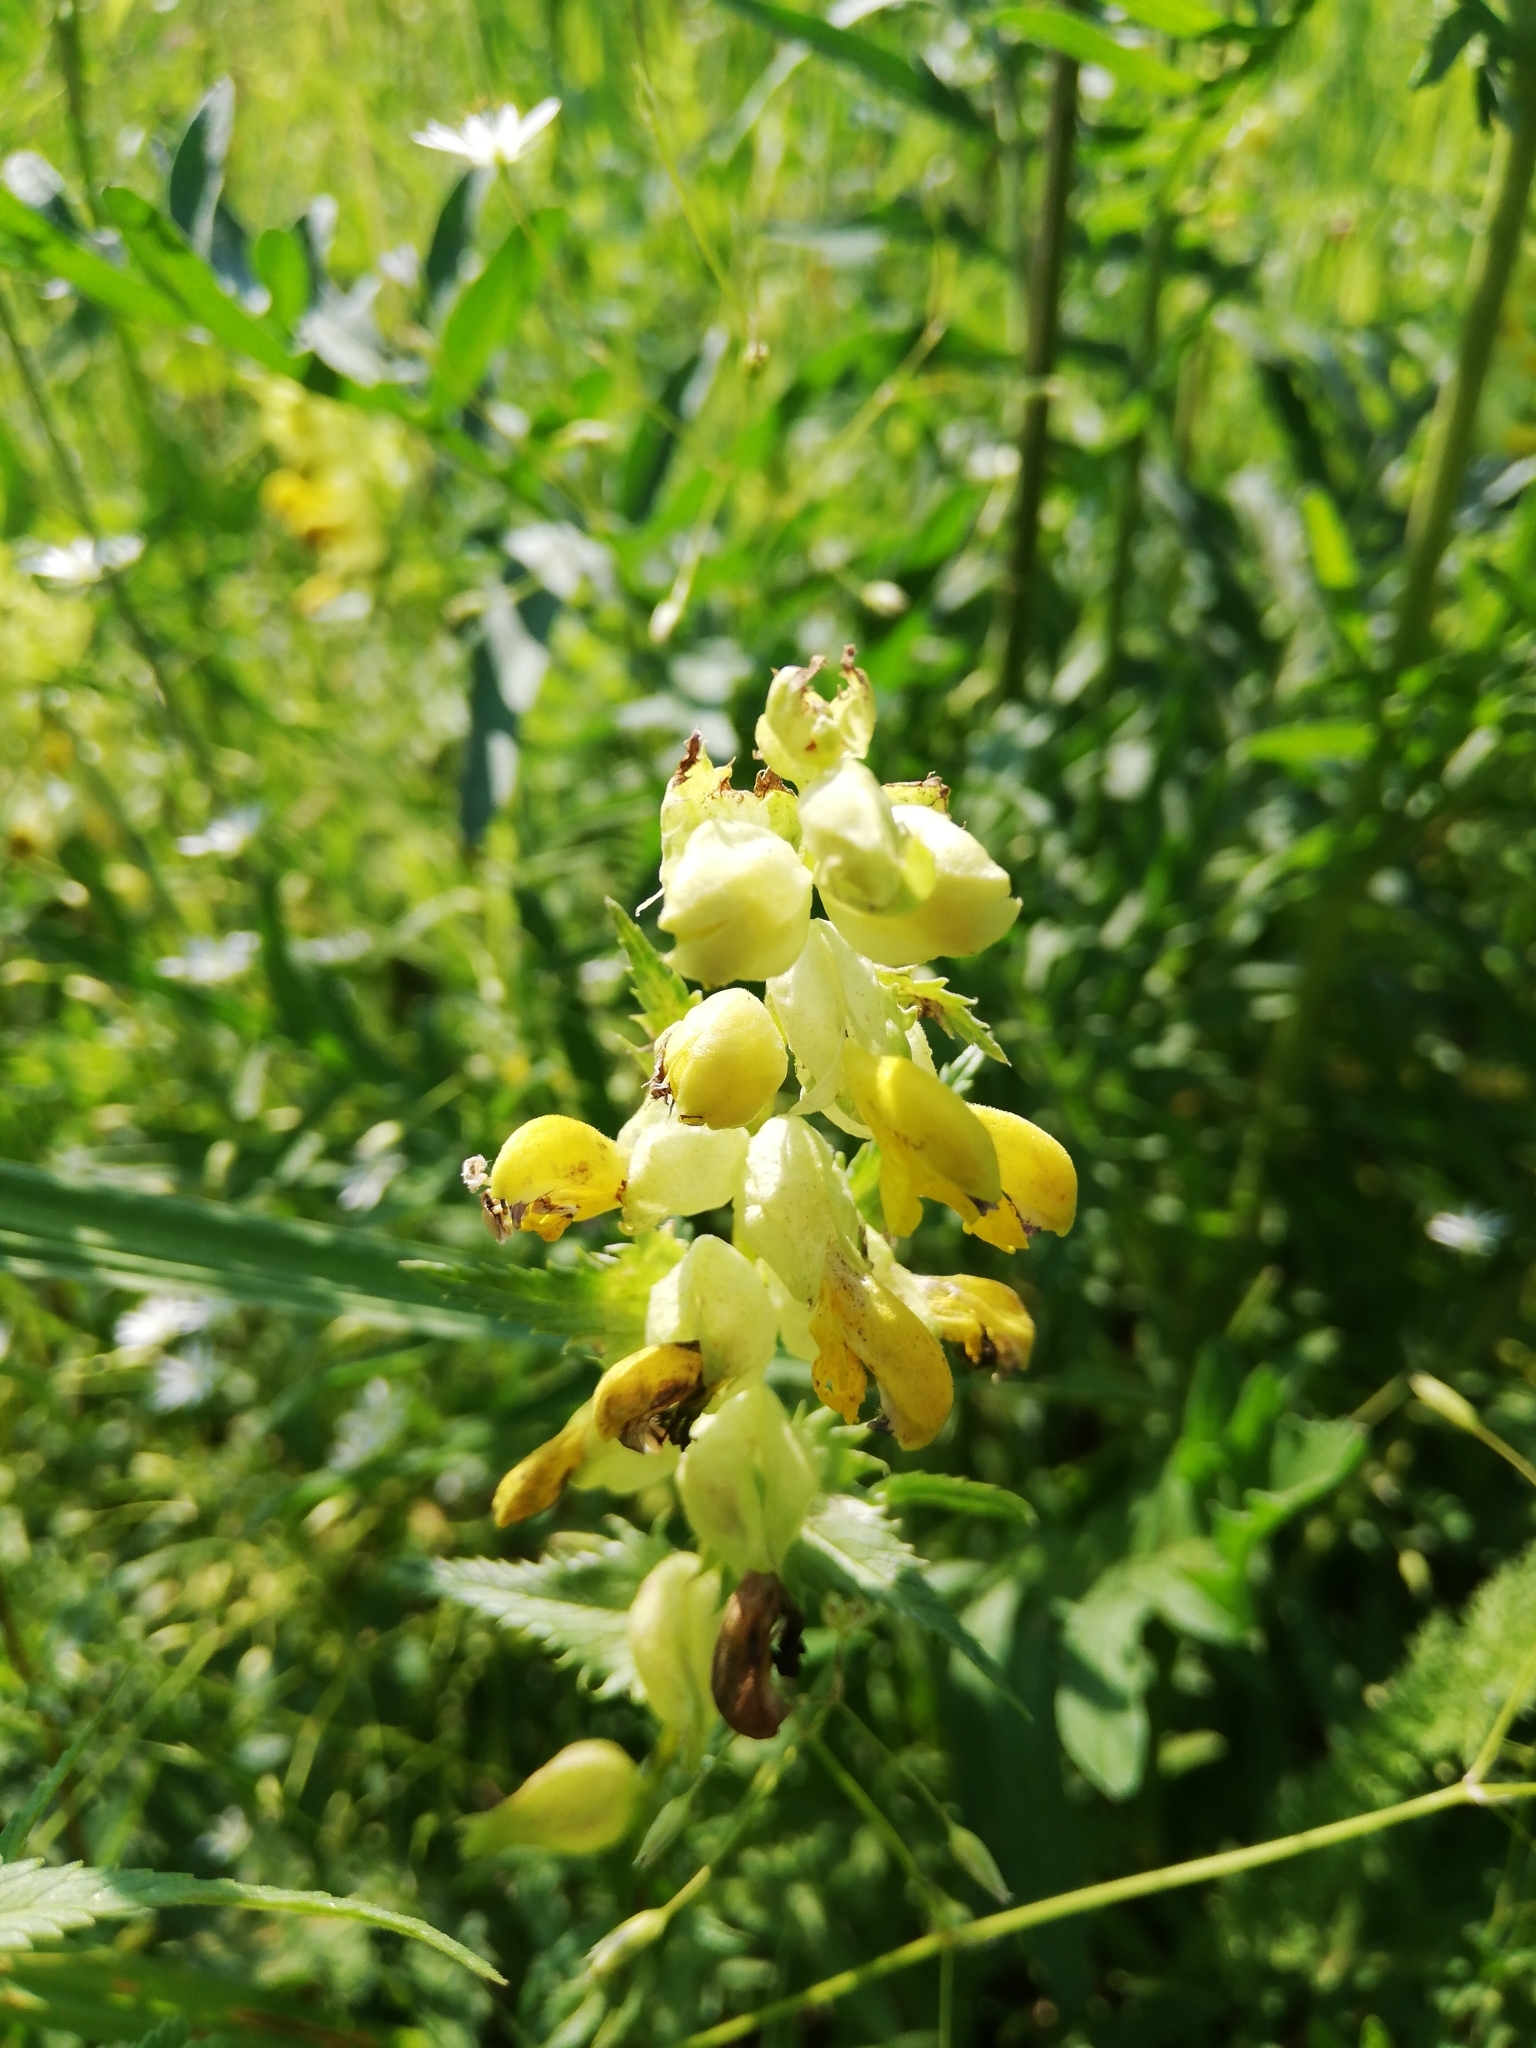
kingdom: Plantae
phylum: Tracheophyta
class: Magnoliopsida
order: Lamiales
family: Orobanchaceae
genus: Rhinanthus
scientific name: Rhinanthus serotinus
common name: Late-flowering yellow rattle
